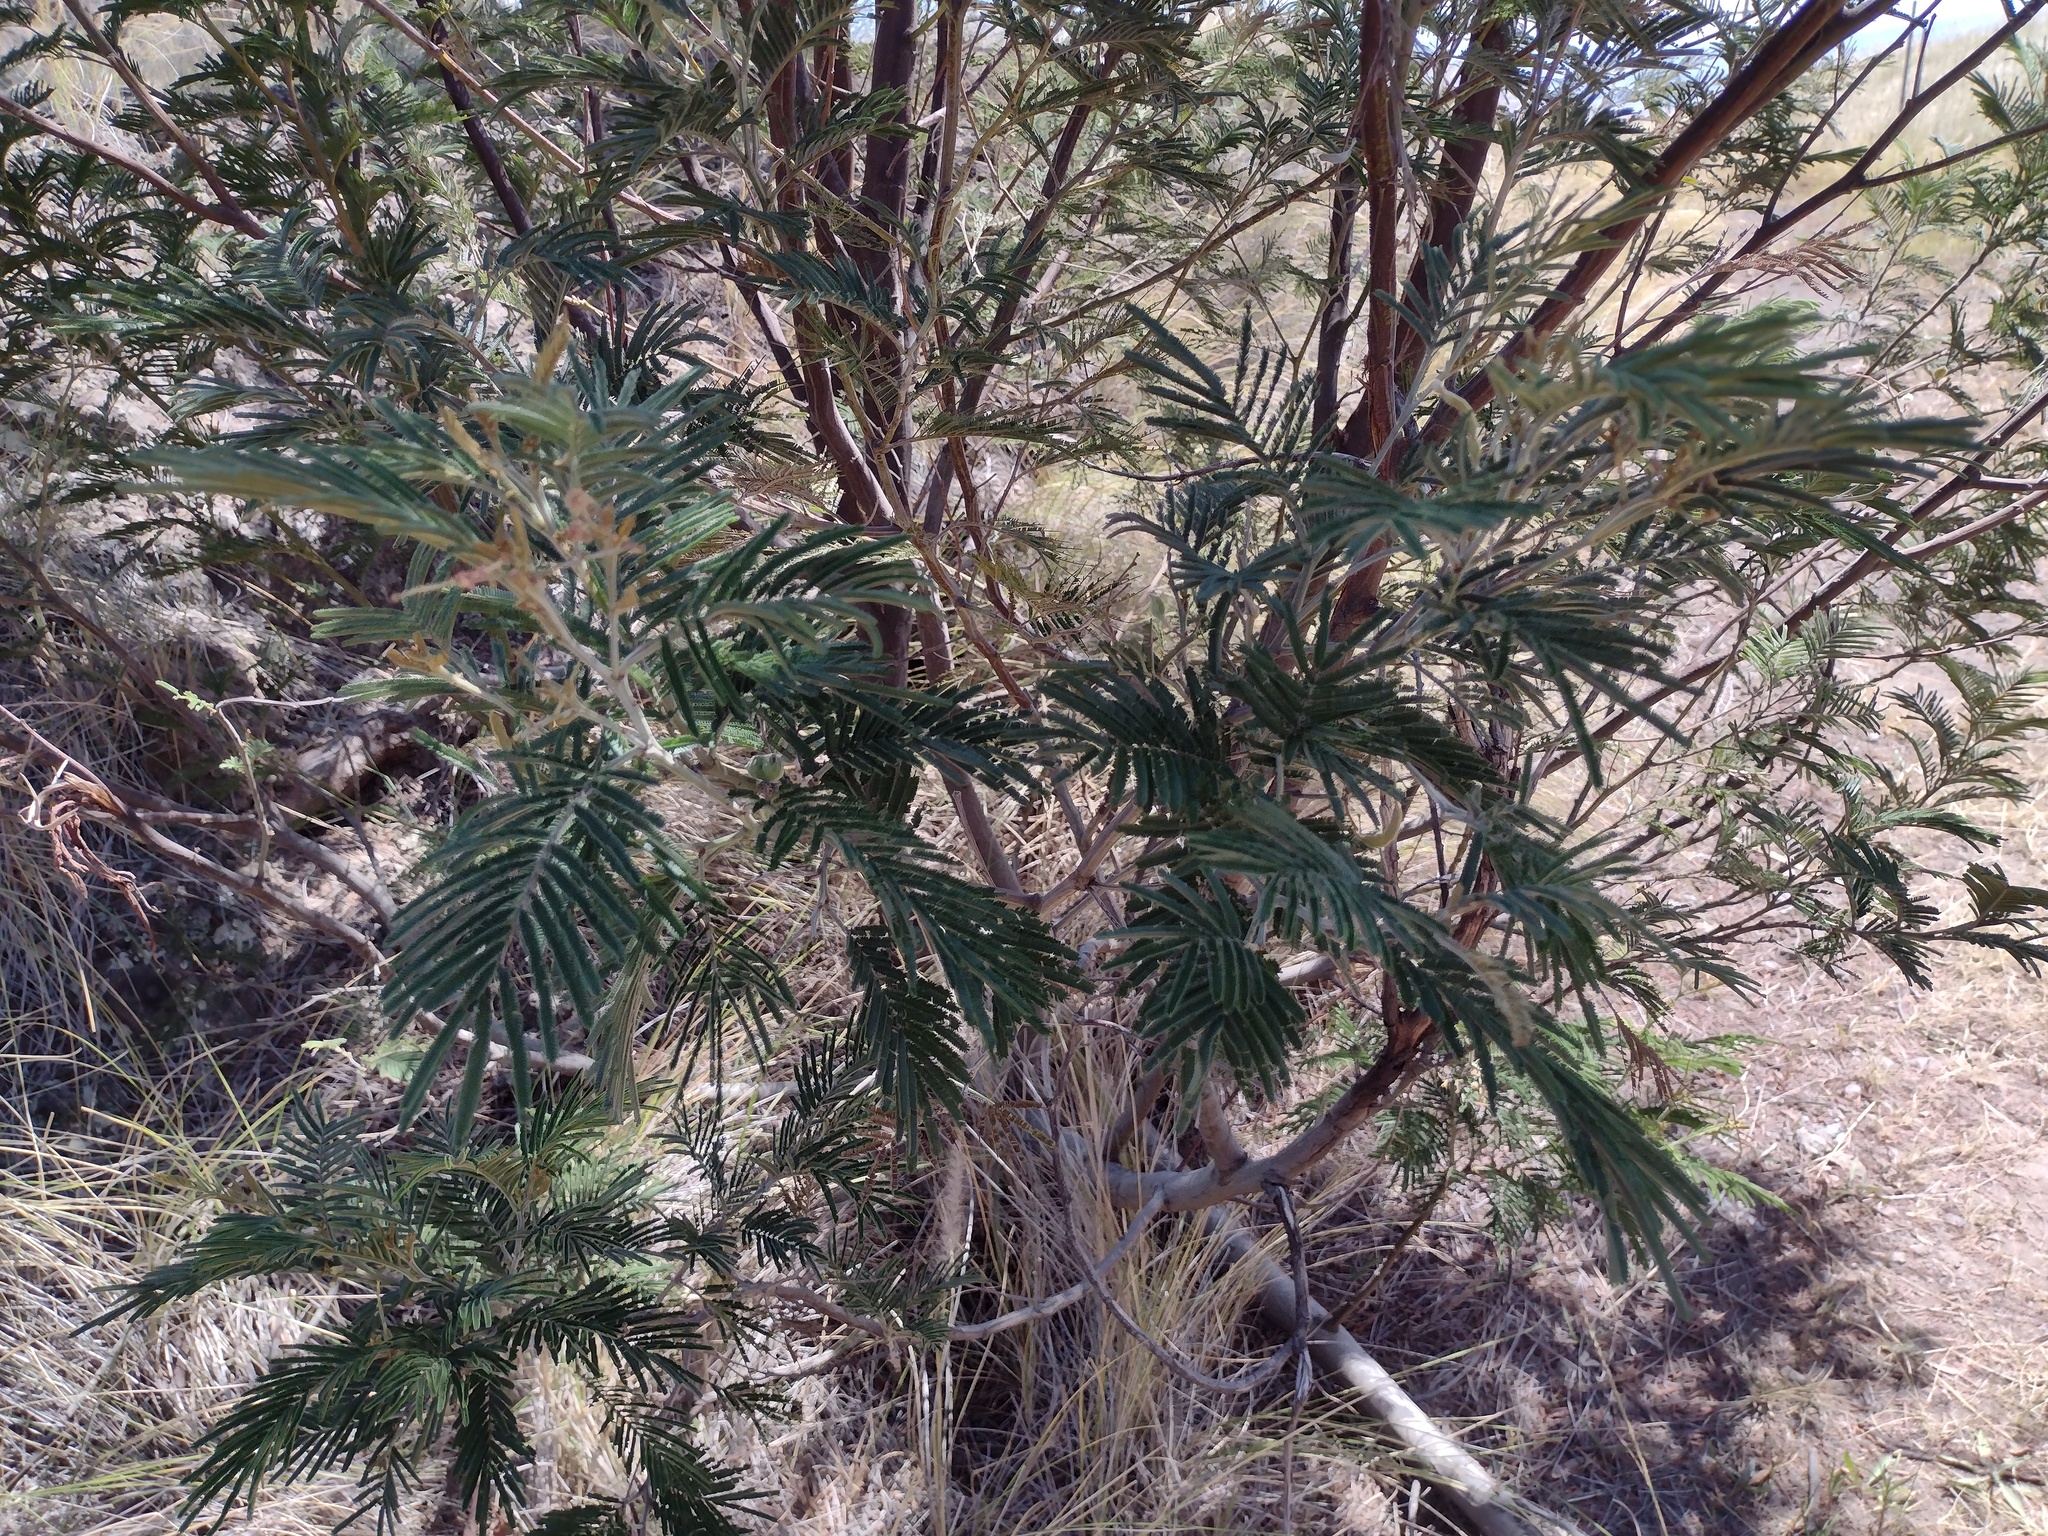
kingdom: Plantae
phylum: Tracheophyta
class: Magnoliopsida
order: Fabales
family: Fabaceae
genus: Acacia
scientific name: Acacia mearnsii
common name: Black wattle
